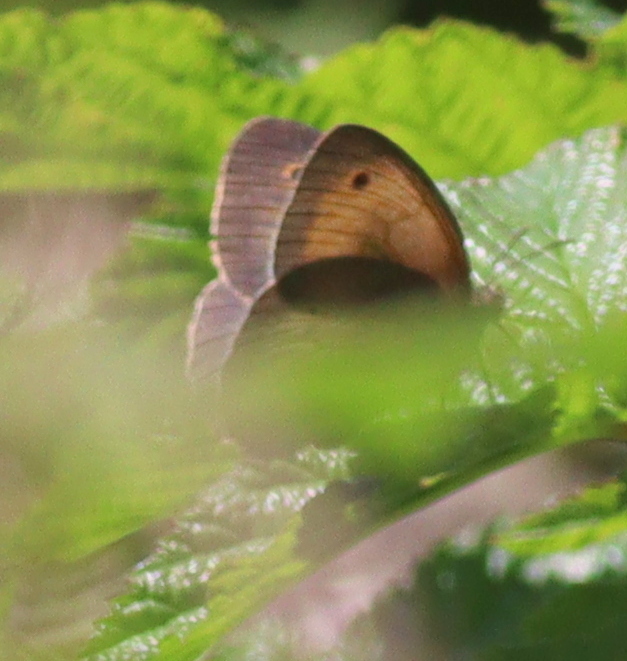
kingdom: Animalia
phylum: Arthropoda
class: Insecta
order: Lepidoptera
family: Nymphalidae
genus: Maniola
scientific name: Maniola jurtina
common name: Meadow brown
